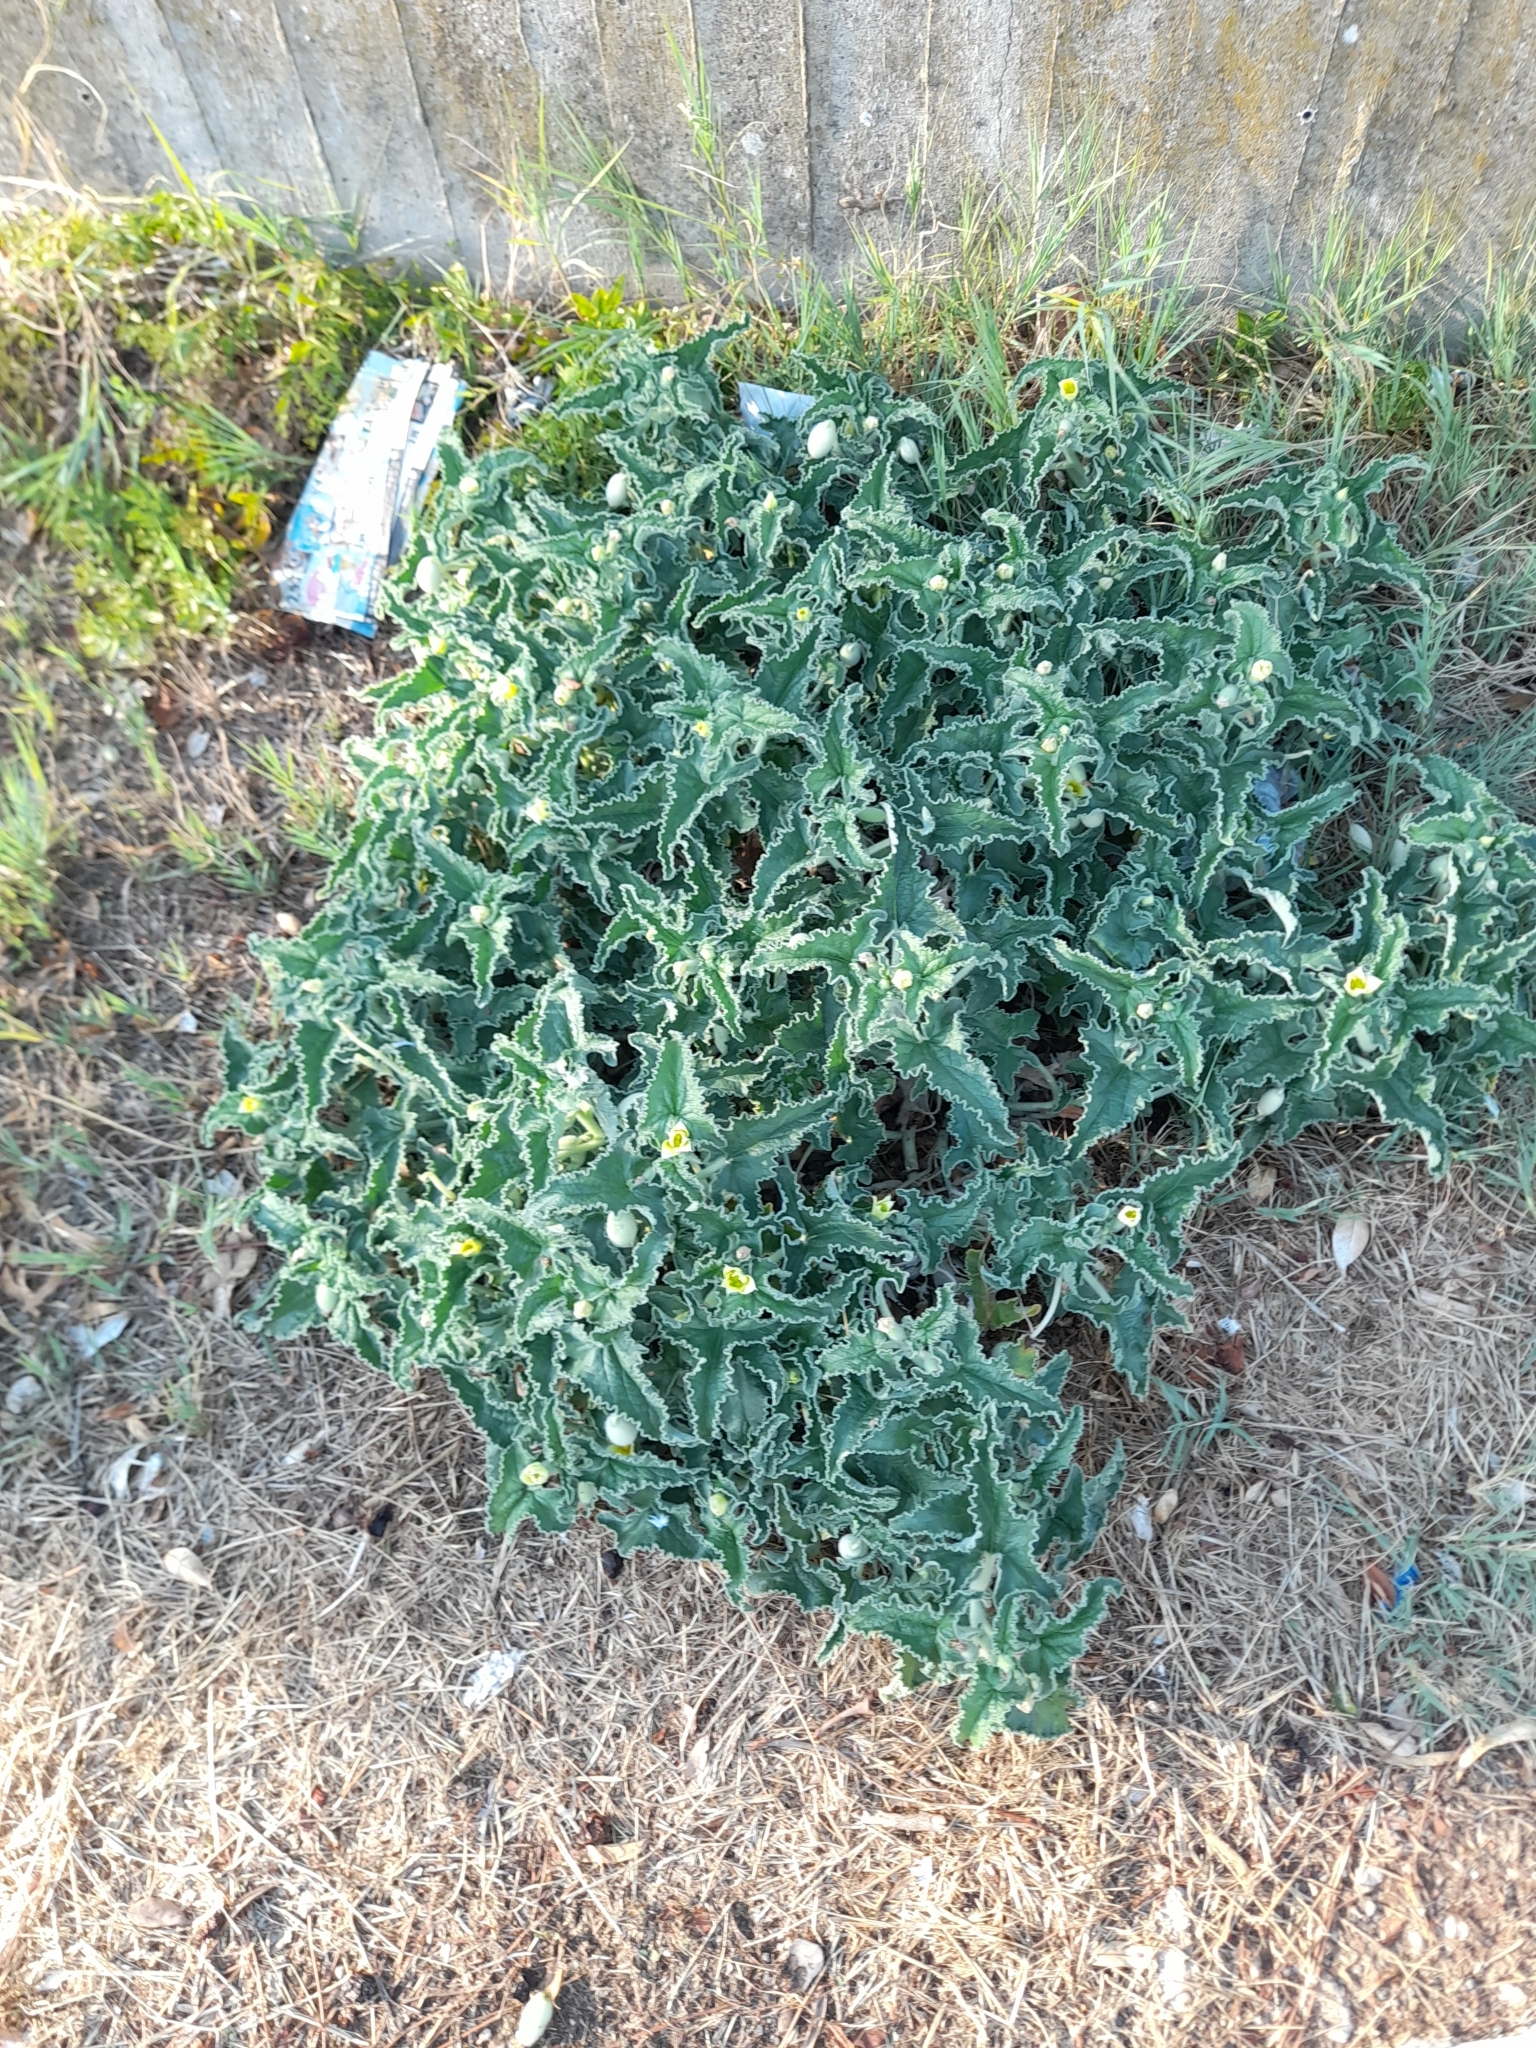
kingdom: Plantae
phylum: Tracheophyta
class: Magnoliopsida
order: Cucurbitales
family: Cucurbitaceae
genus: Ecballium
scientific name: Ecballium elaterium
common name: Squirting cucumber
